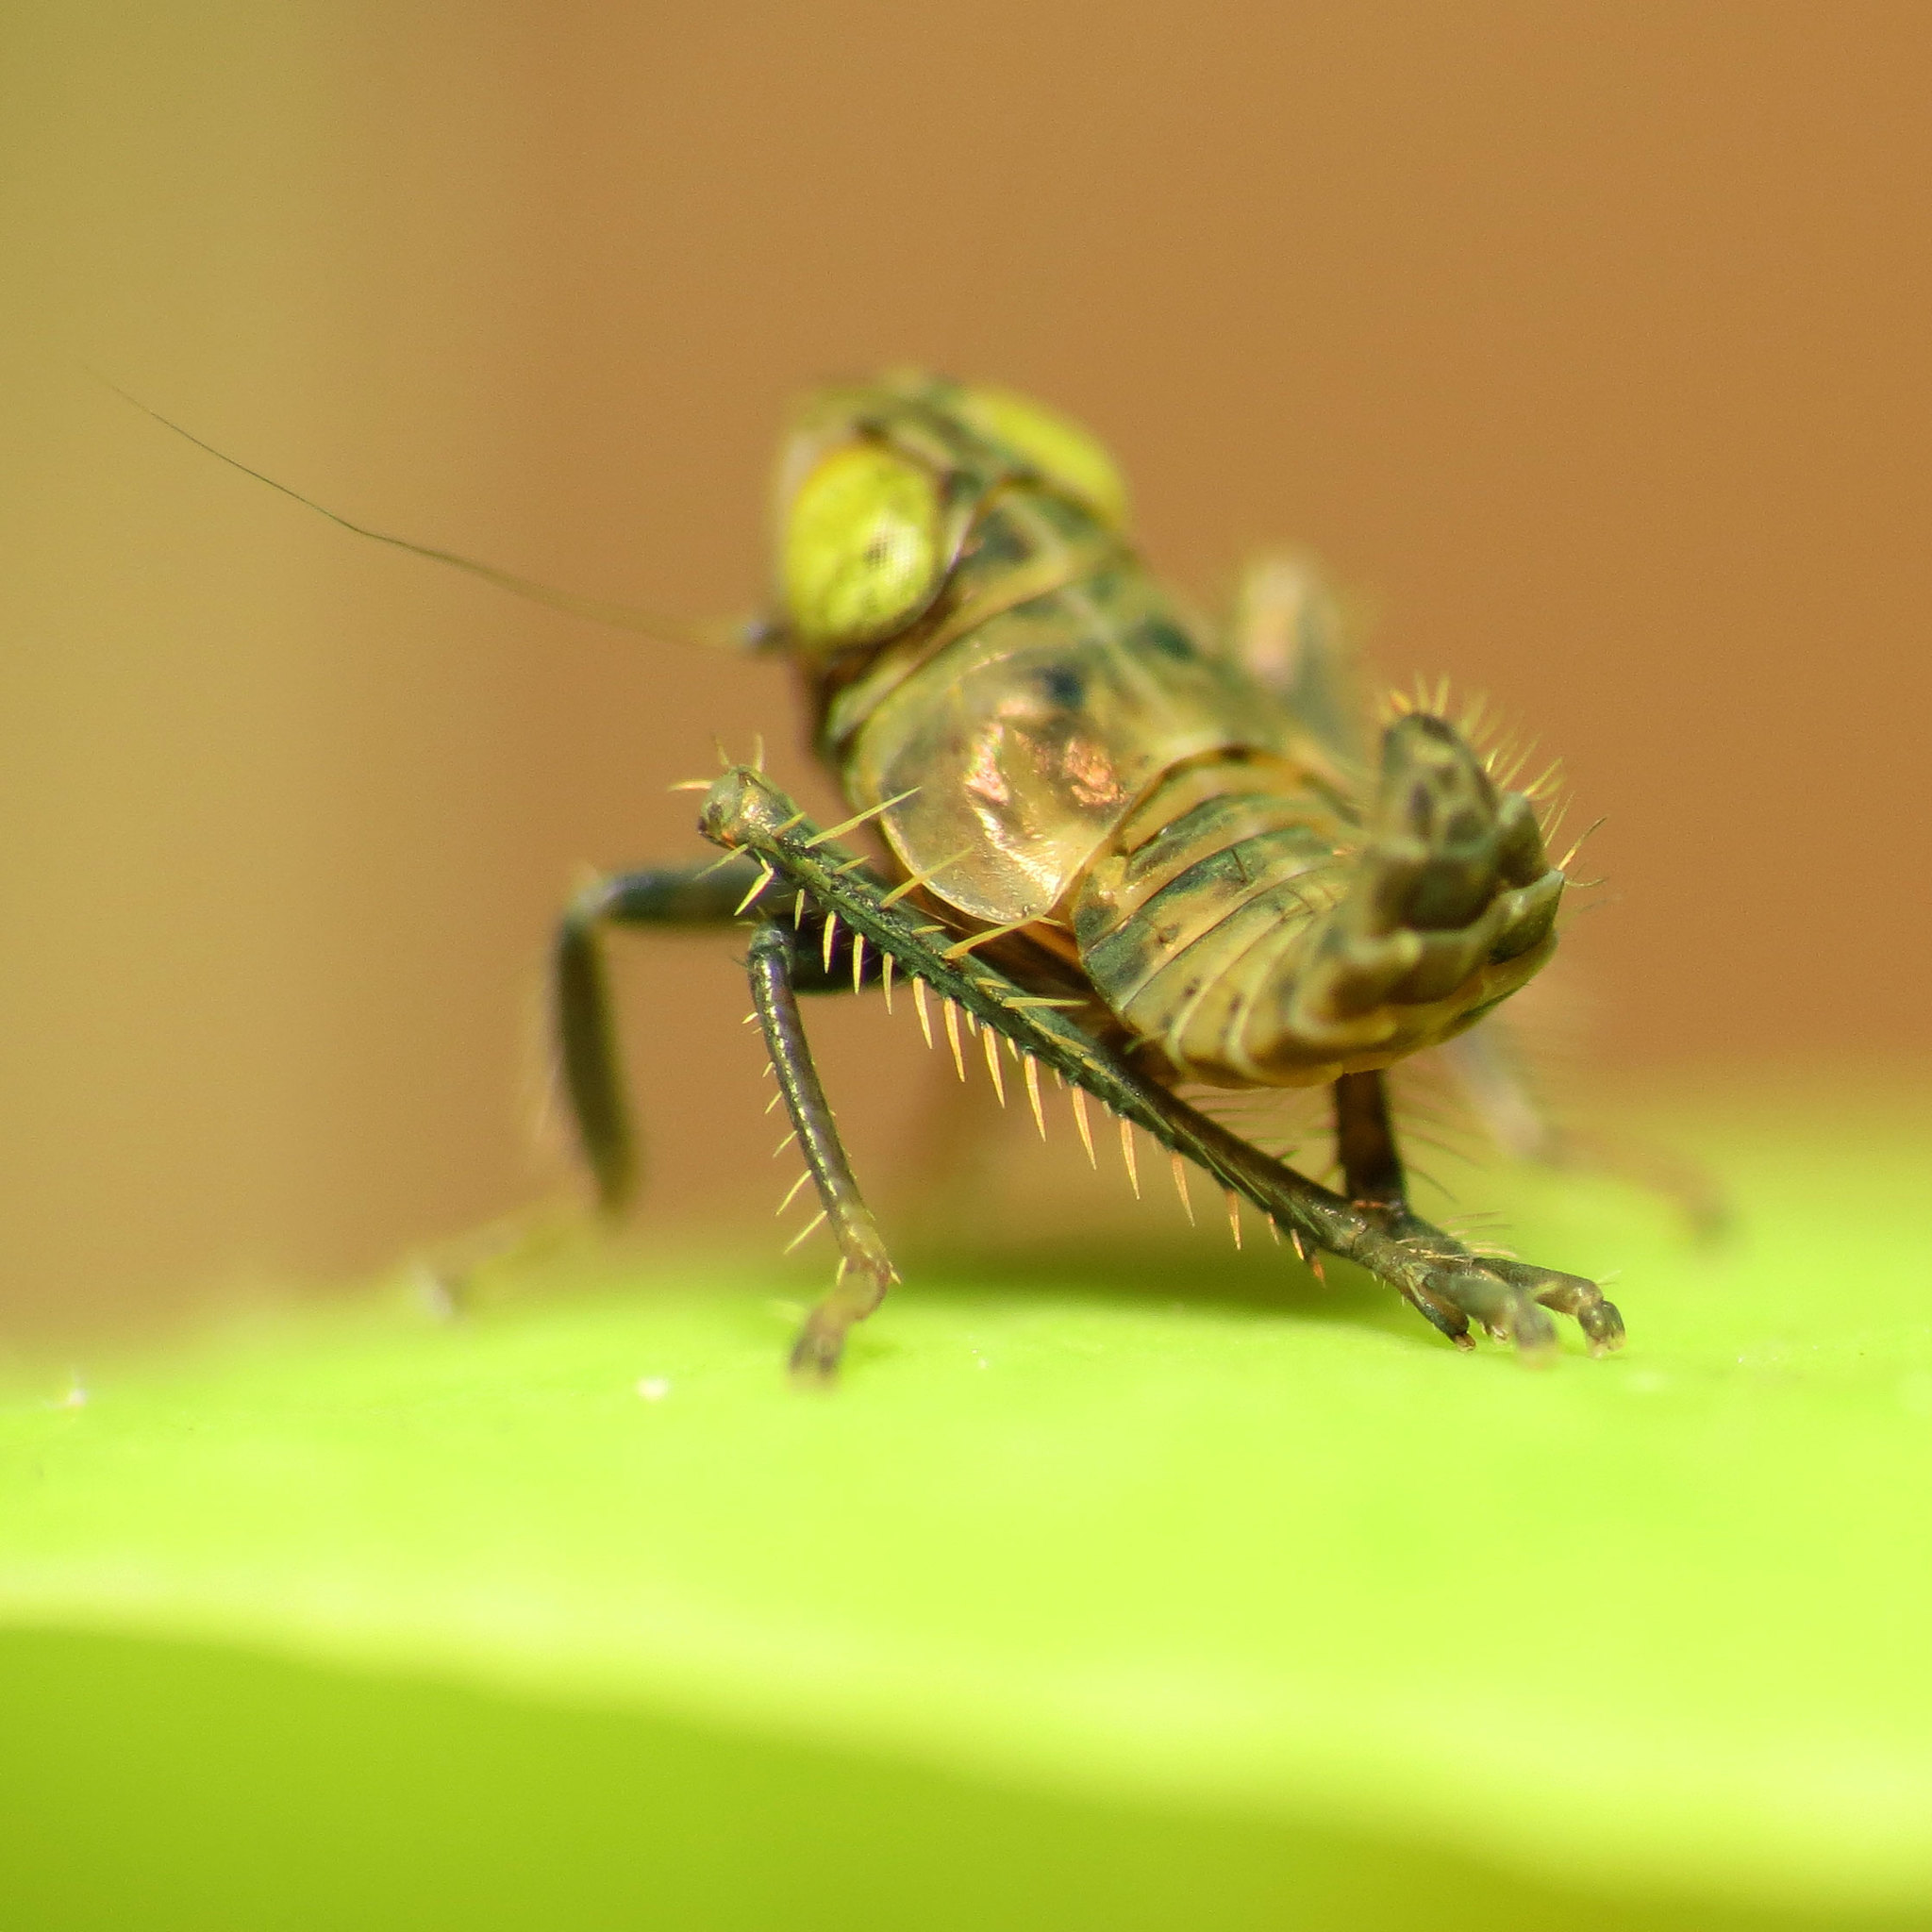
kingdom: Animalia
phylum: Arthropoda
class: Insecta
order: Hemiptera
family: Cicadellidae
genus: Jikradia
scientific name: Jikradia olitoria
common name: Coppery leafhopper
